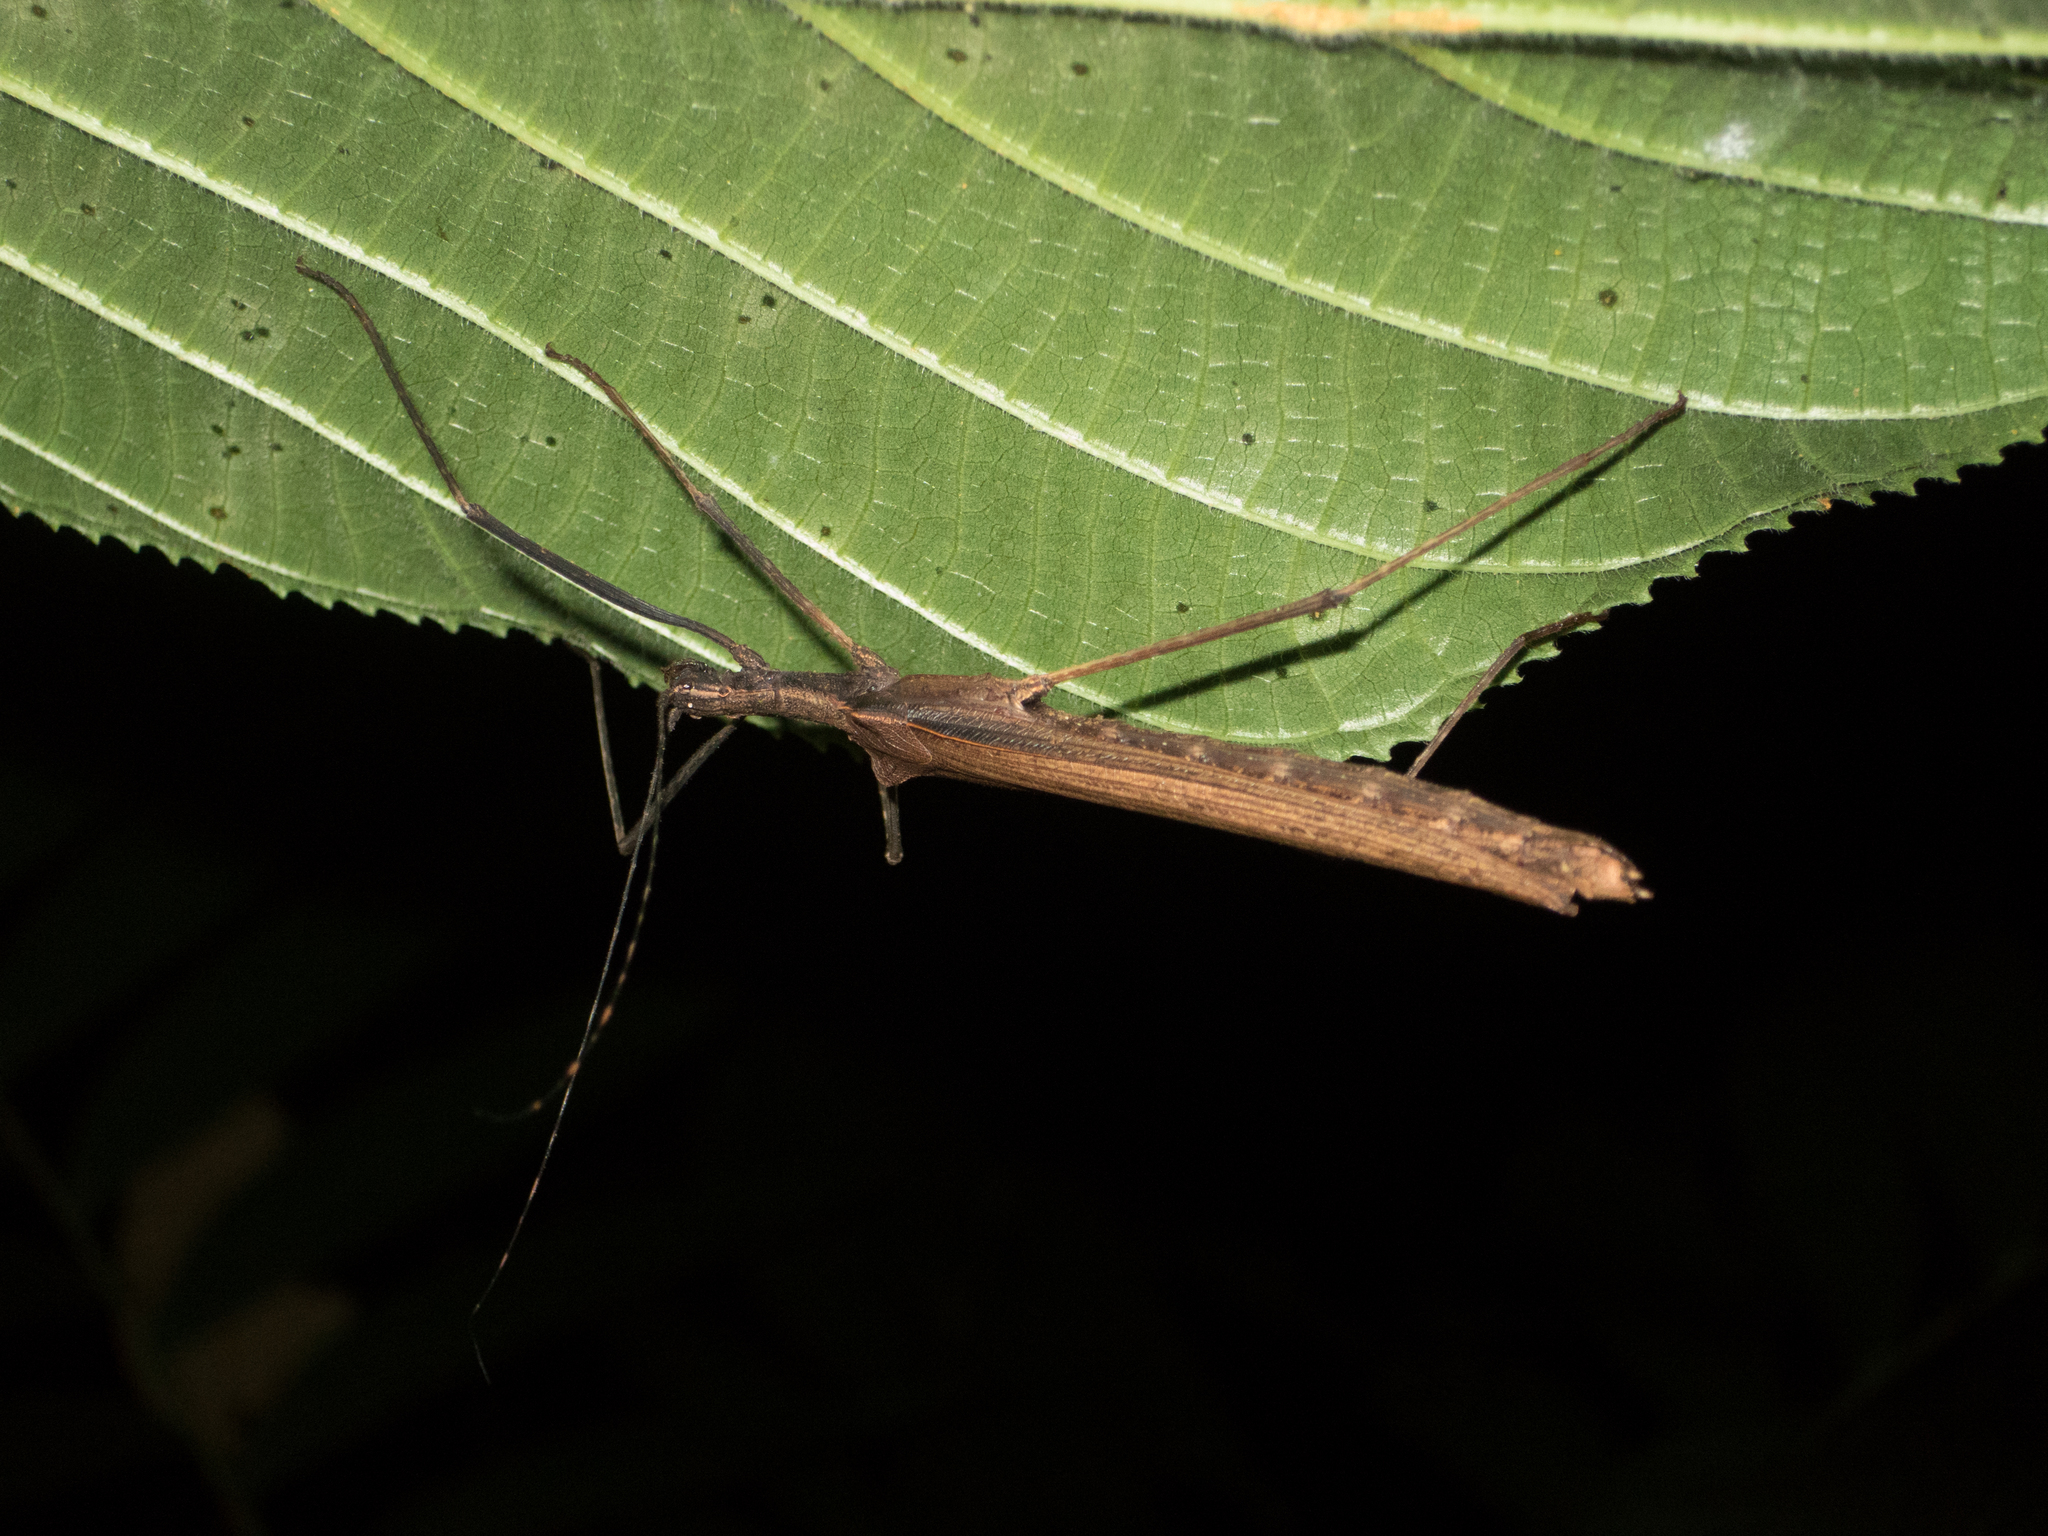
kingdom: Animalia
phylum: Arthropoda
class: Insecta
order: Phasmida
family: Pseudophasmatidae
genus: Pseudophasma
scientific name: Pseudophasma unicolor
